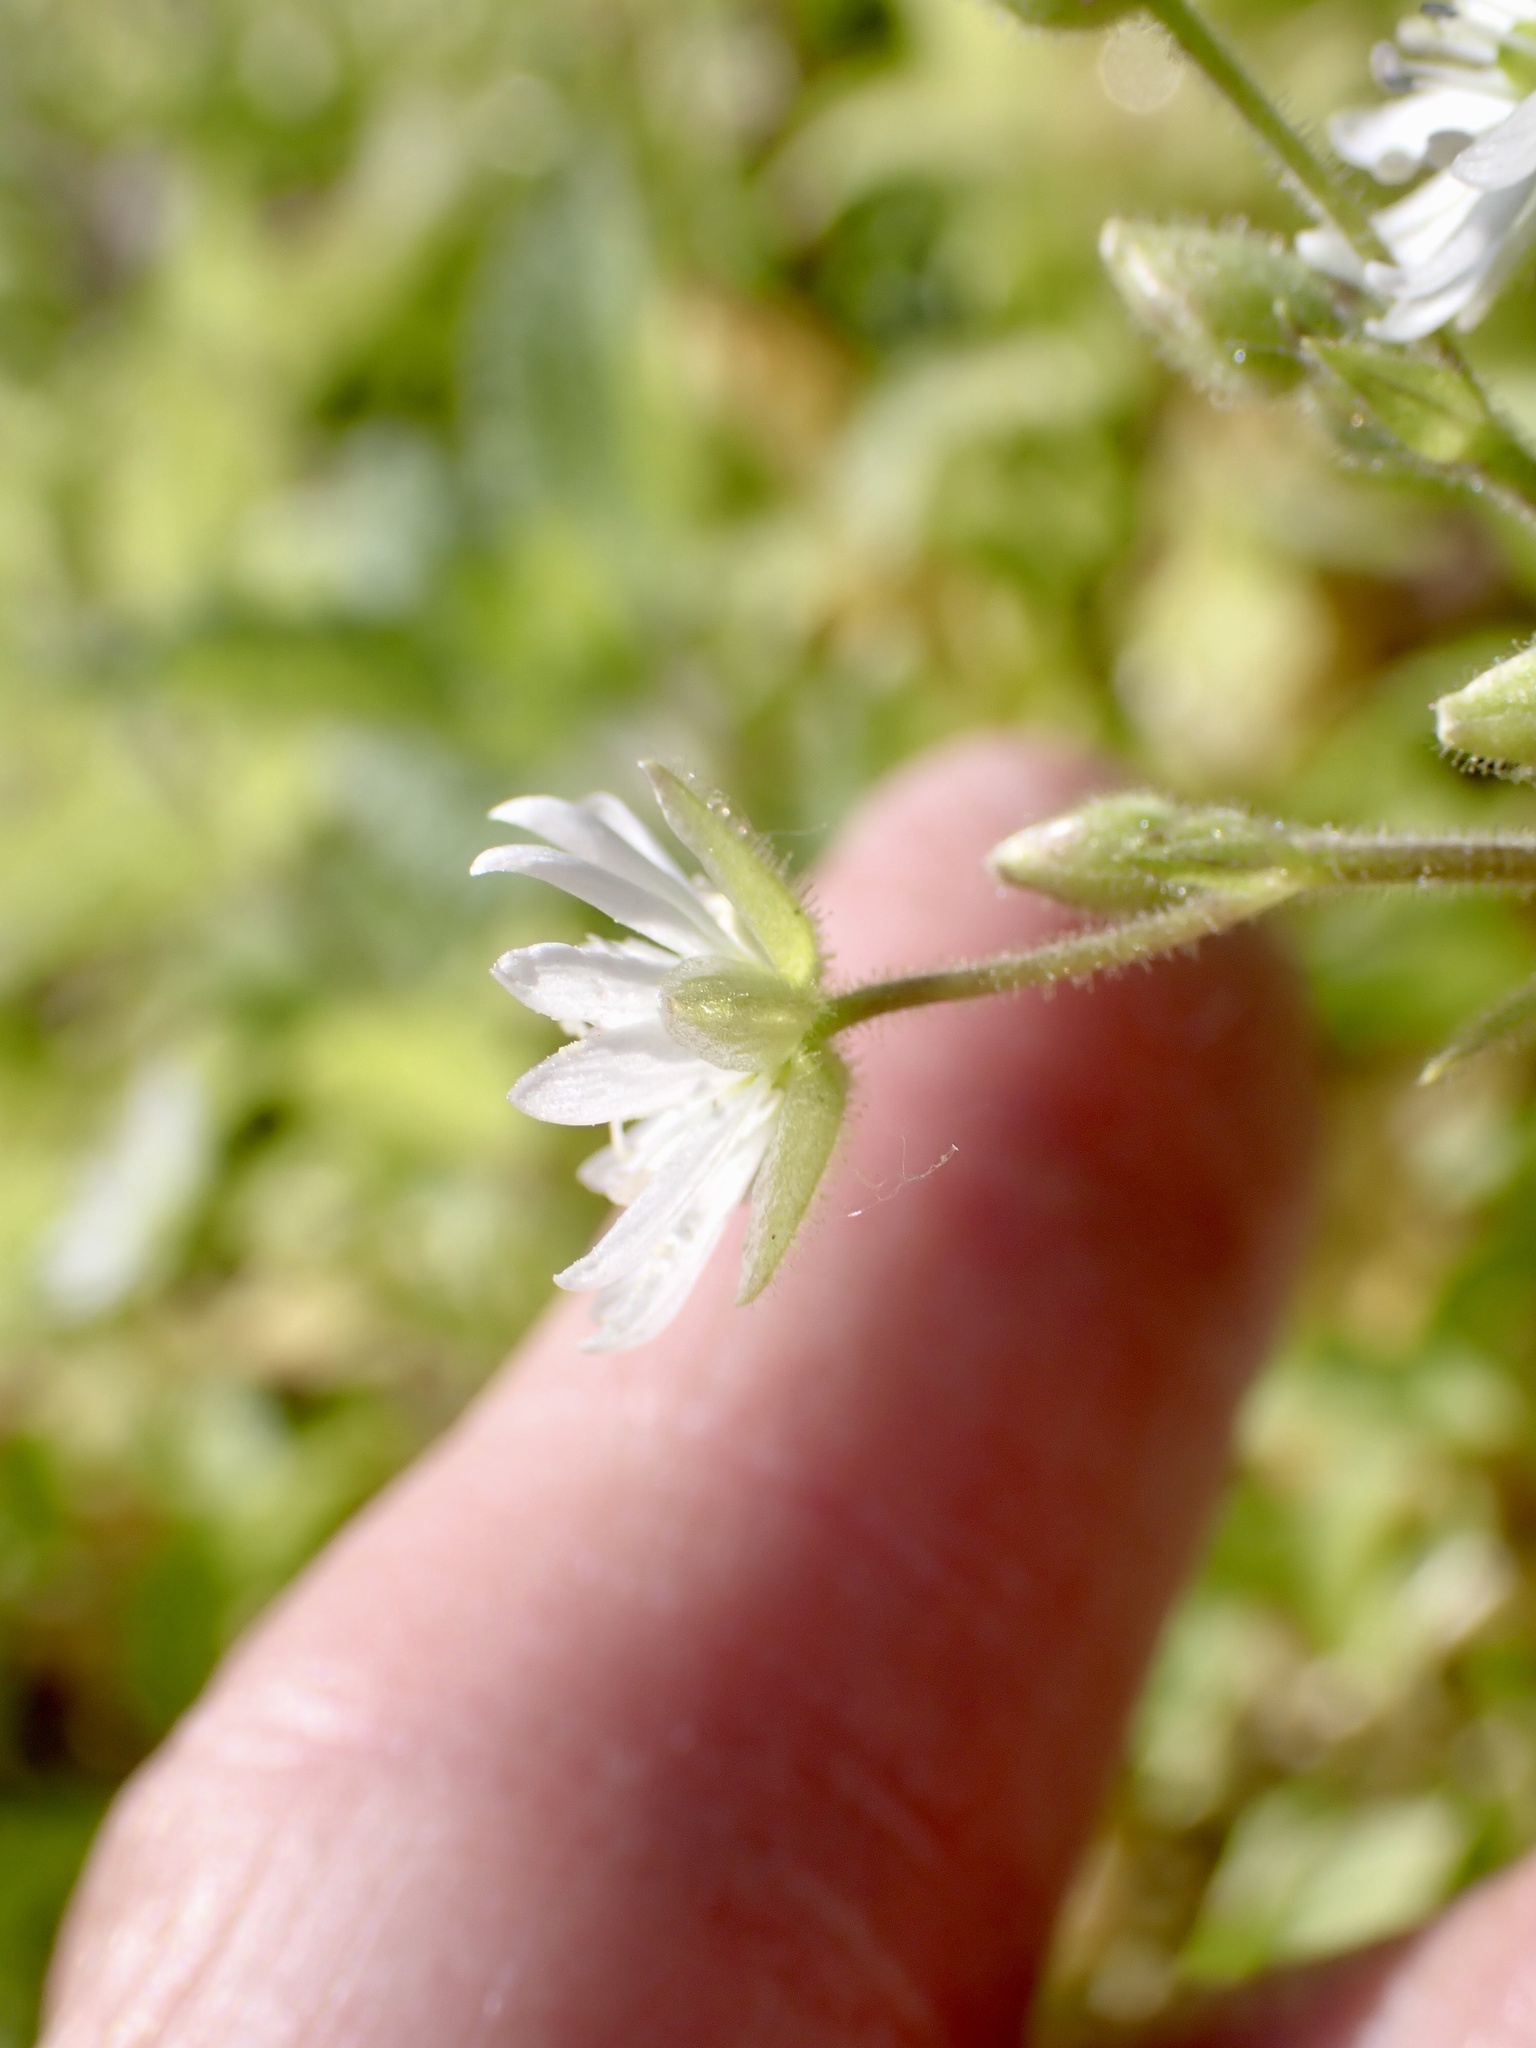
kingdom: Plantae
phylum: Tracheophyta
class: Magnoliopsida
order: Caryophyllales
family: Caryophyllaceae
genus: Stellaria
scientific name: Stellaria aquatica
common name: Water chickweed
